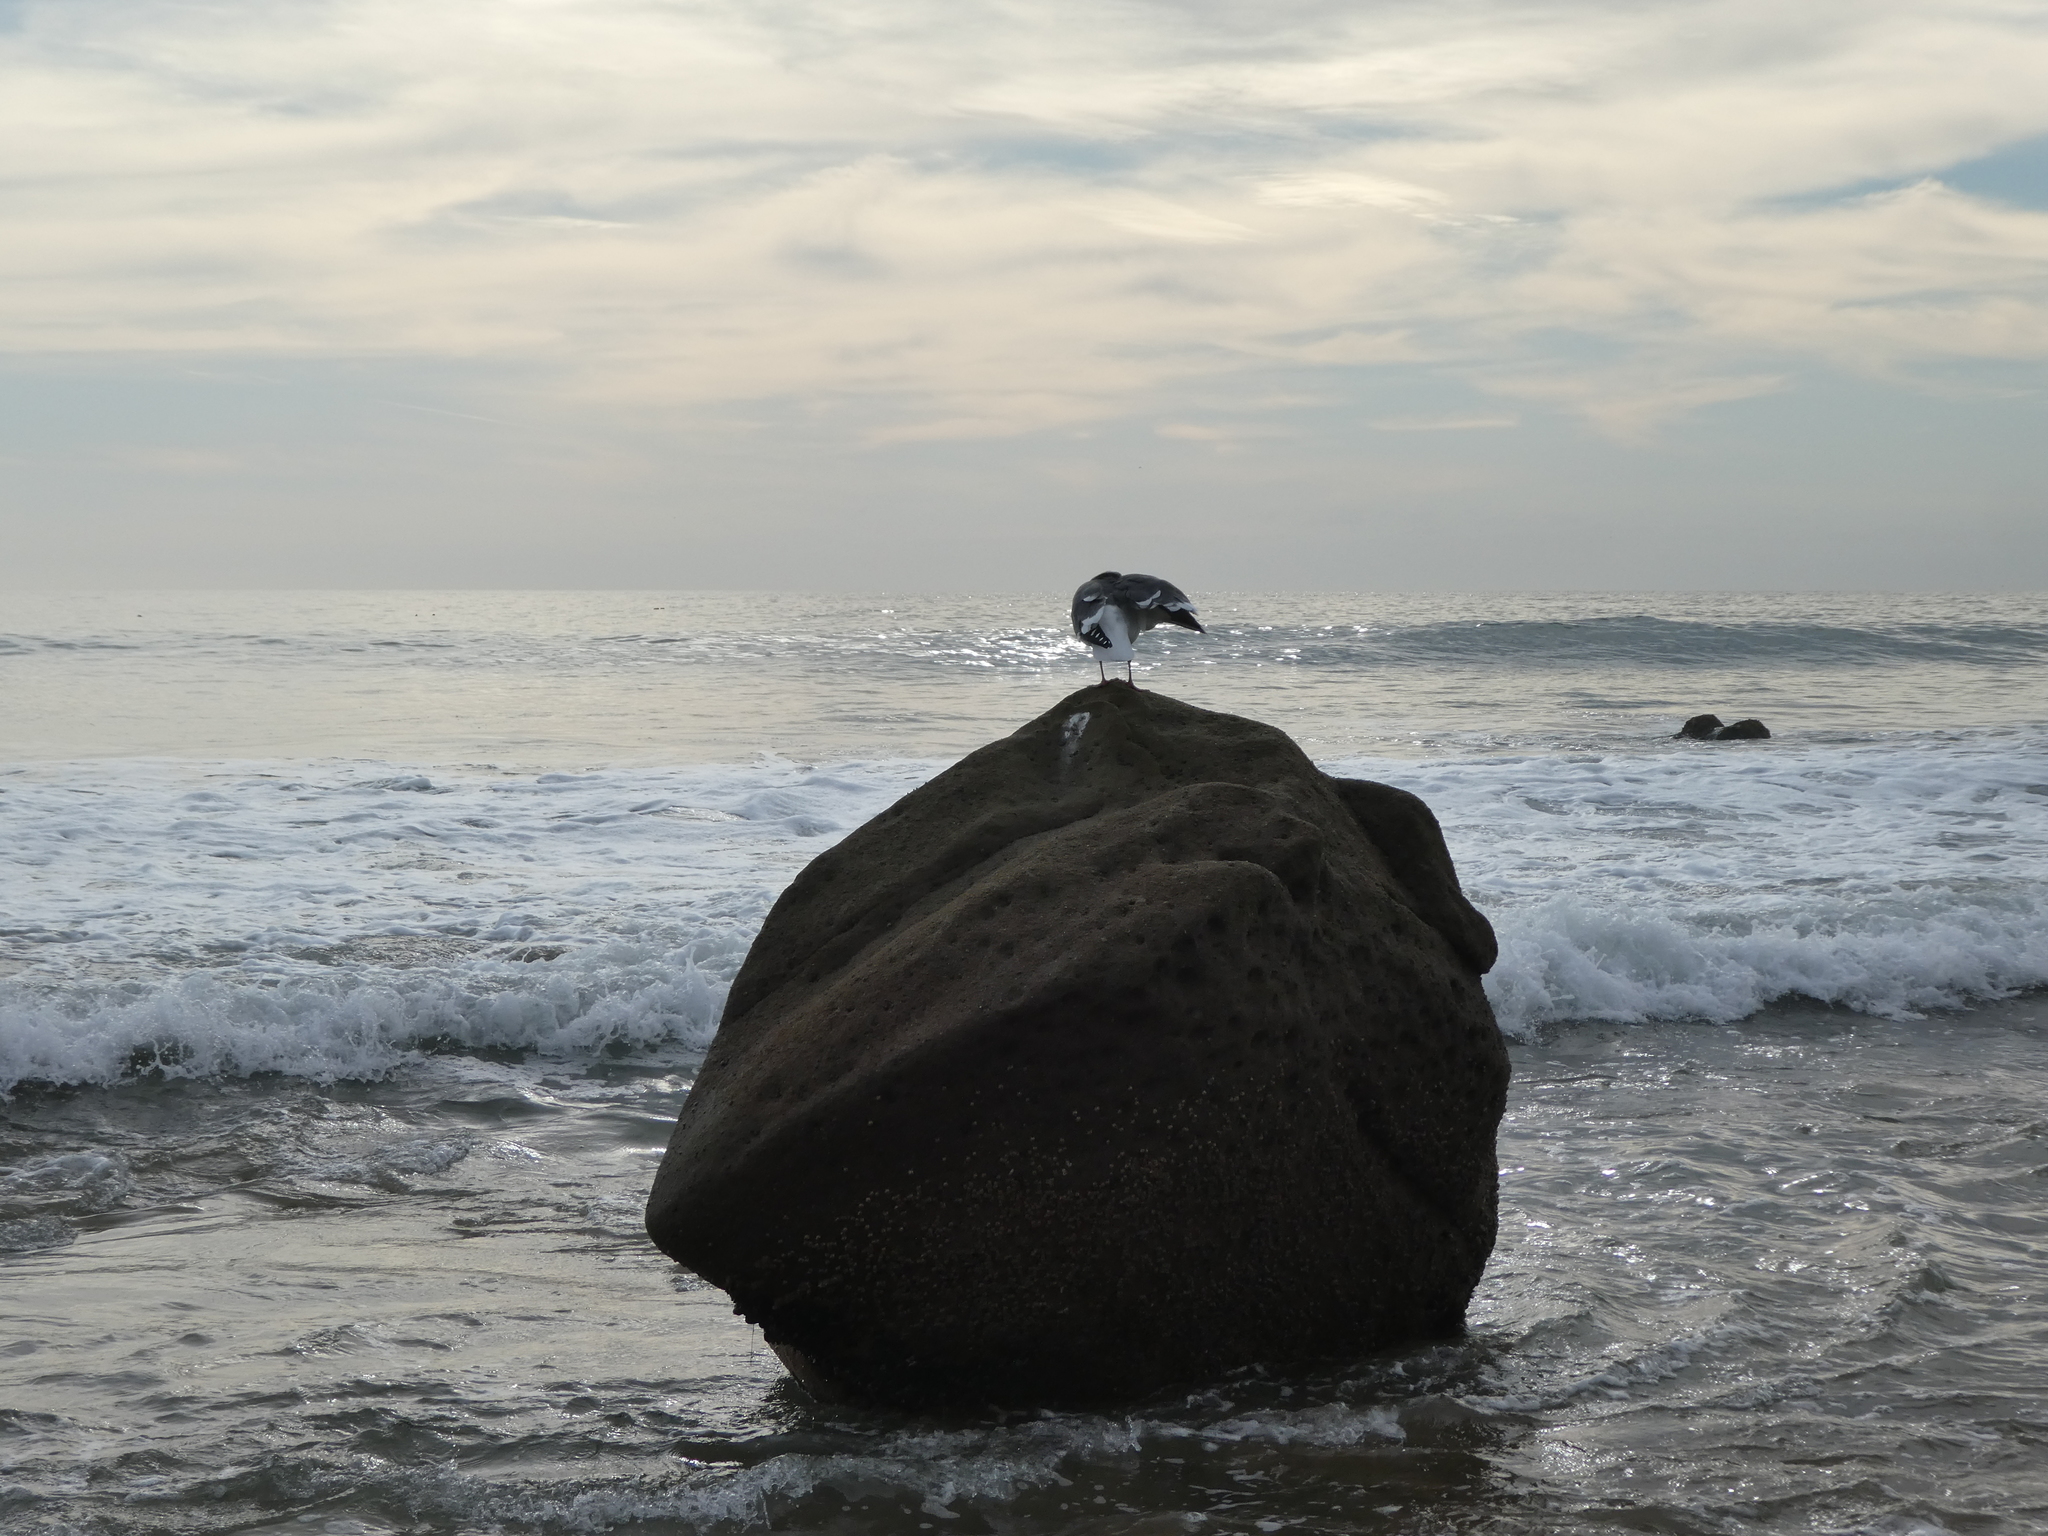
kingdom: Animalia
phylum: Chordata
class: Aves
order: Charadriiformes
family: Laridae
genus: Larus
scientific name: Larus occidentalis
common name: Western gull
